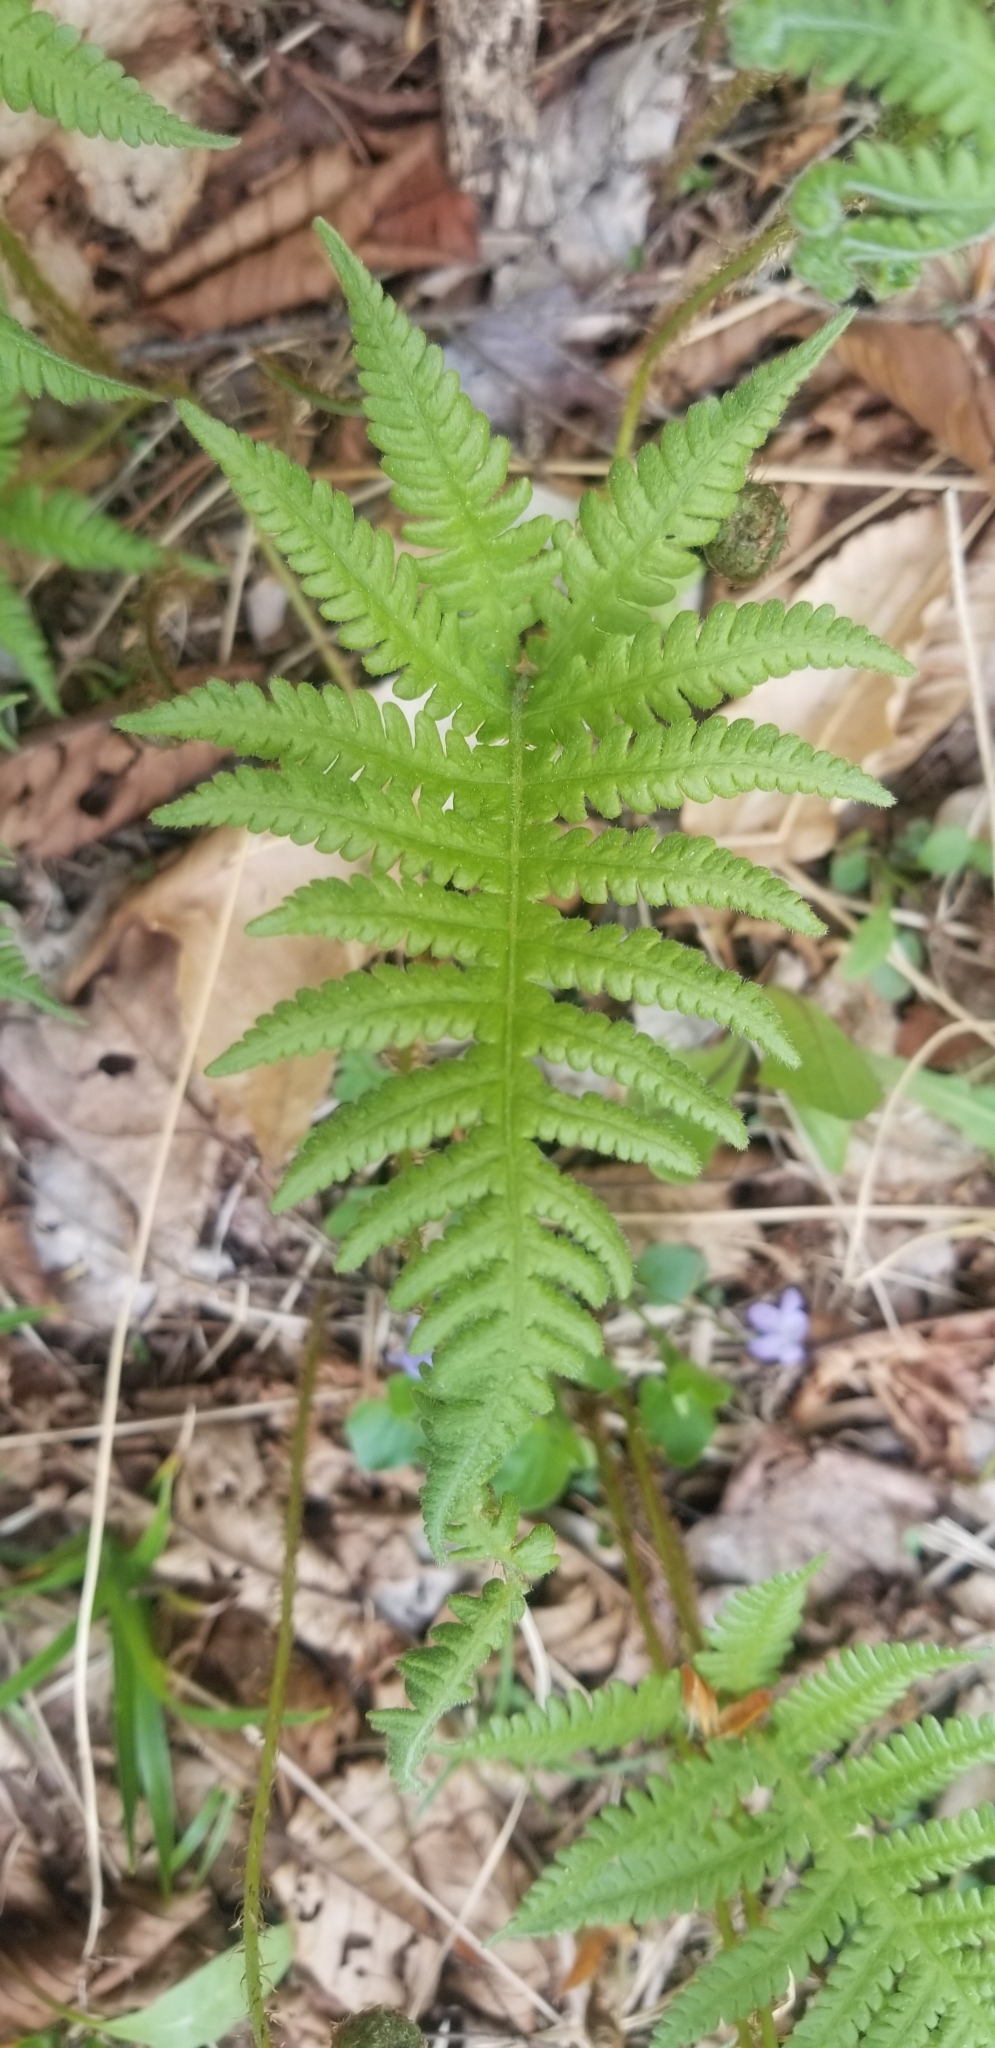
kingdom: Plantae
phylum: Tracheophyta
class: Polypodiopsida
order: Polypodiales
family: Thelypteridaceae
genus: Phegopteris
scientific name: Phegopteris connectilis
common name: Beech fern
